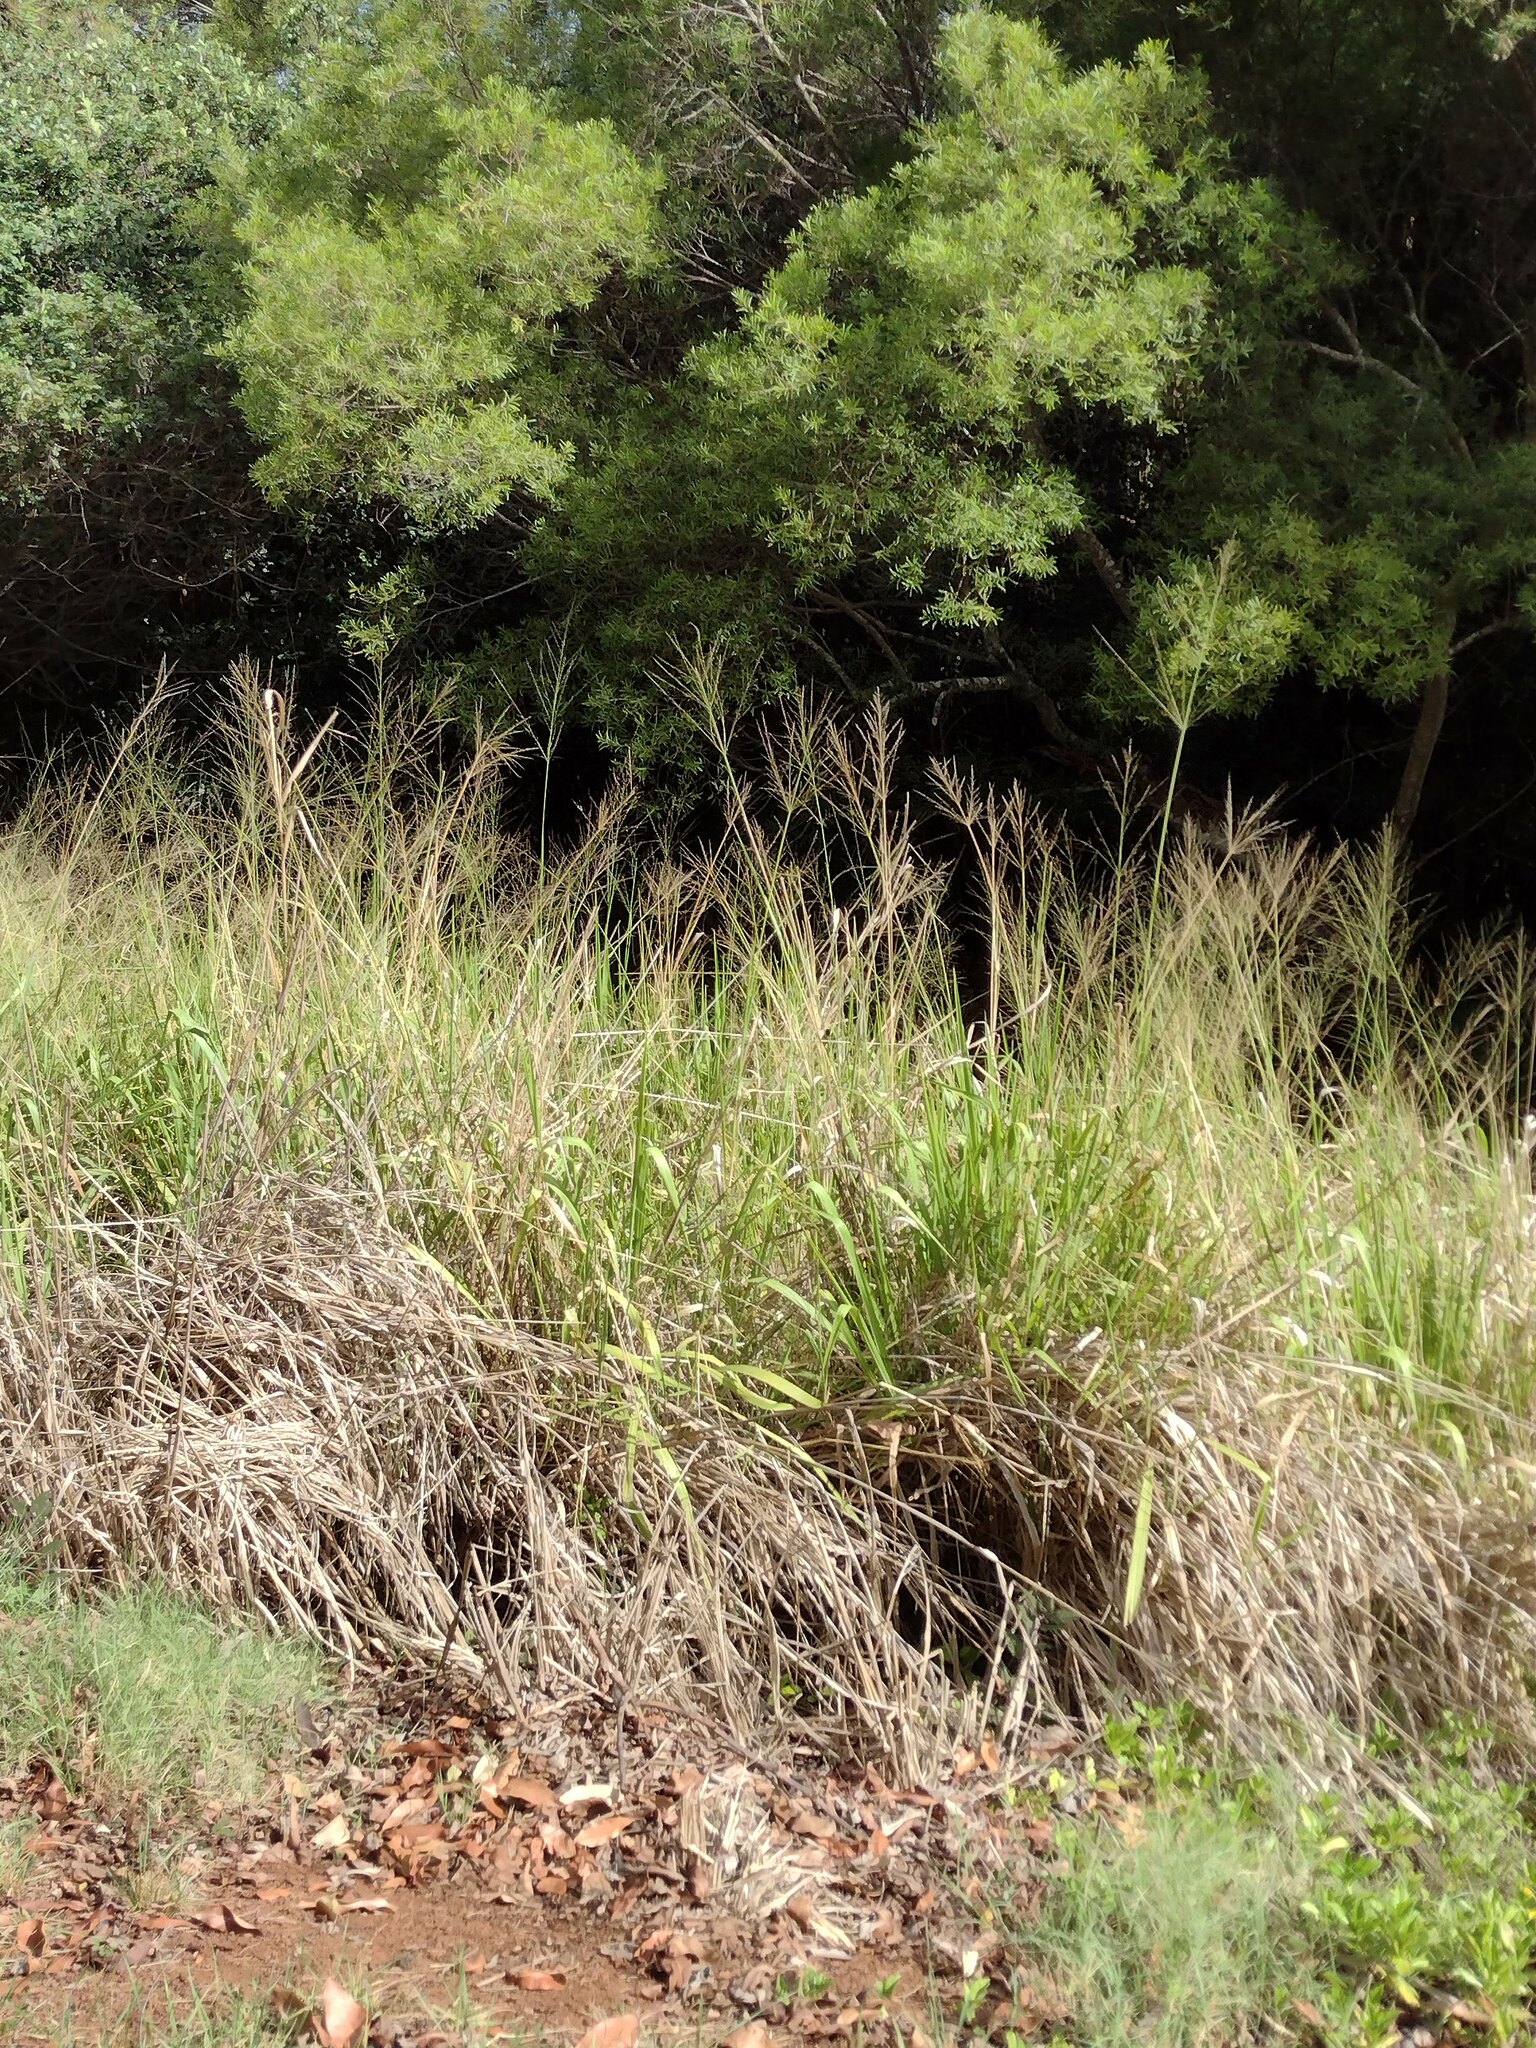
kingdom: Plantae
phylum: Tracheophyta
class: Liliopsida
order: Poales
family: Poaceae
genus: Megathyrsus
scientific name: Megathyrsus maximus
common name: Guineagrass
